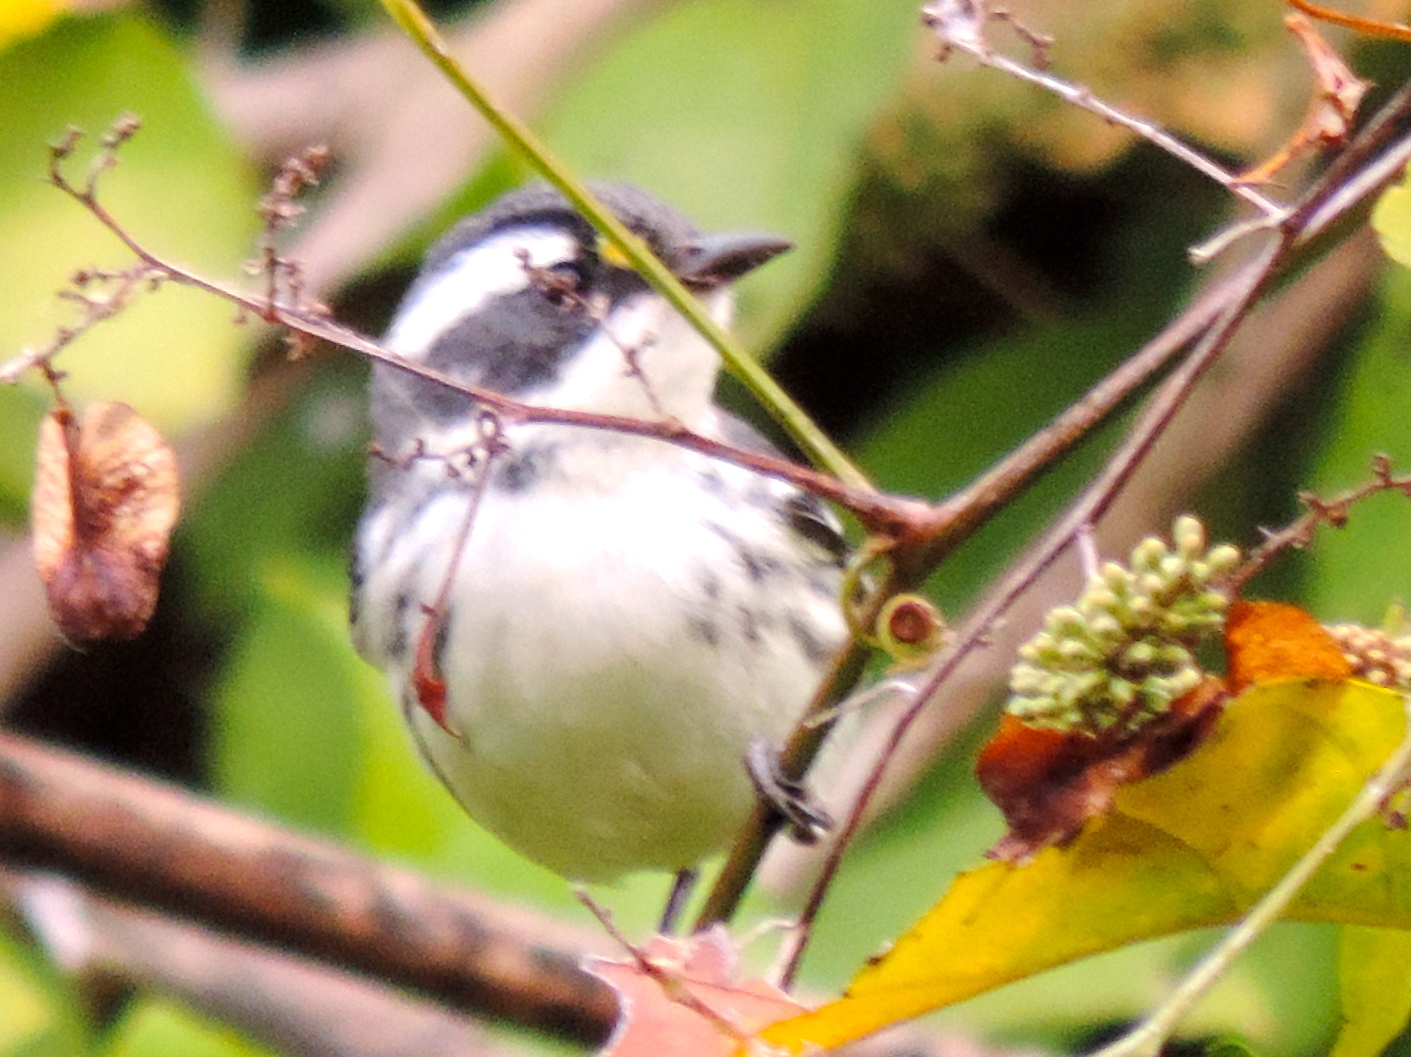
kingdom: Animalia
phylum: Chordata
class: Aves
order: Passeriformes
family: Parulidae
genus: Setophaga
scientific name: Setophaga nigrescens
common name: Black-throated gray warbler
